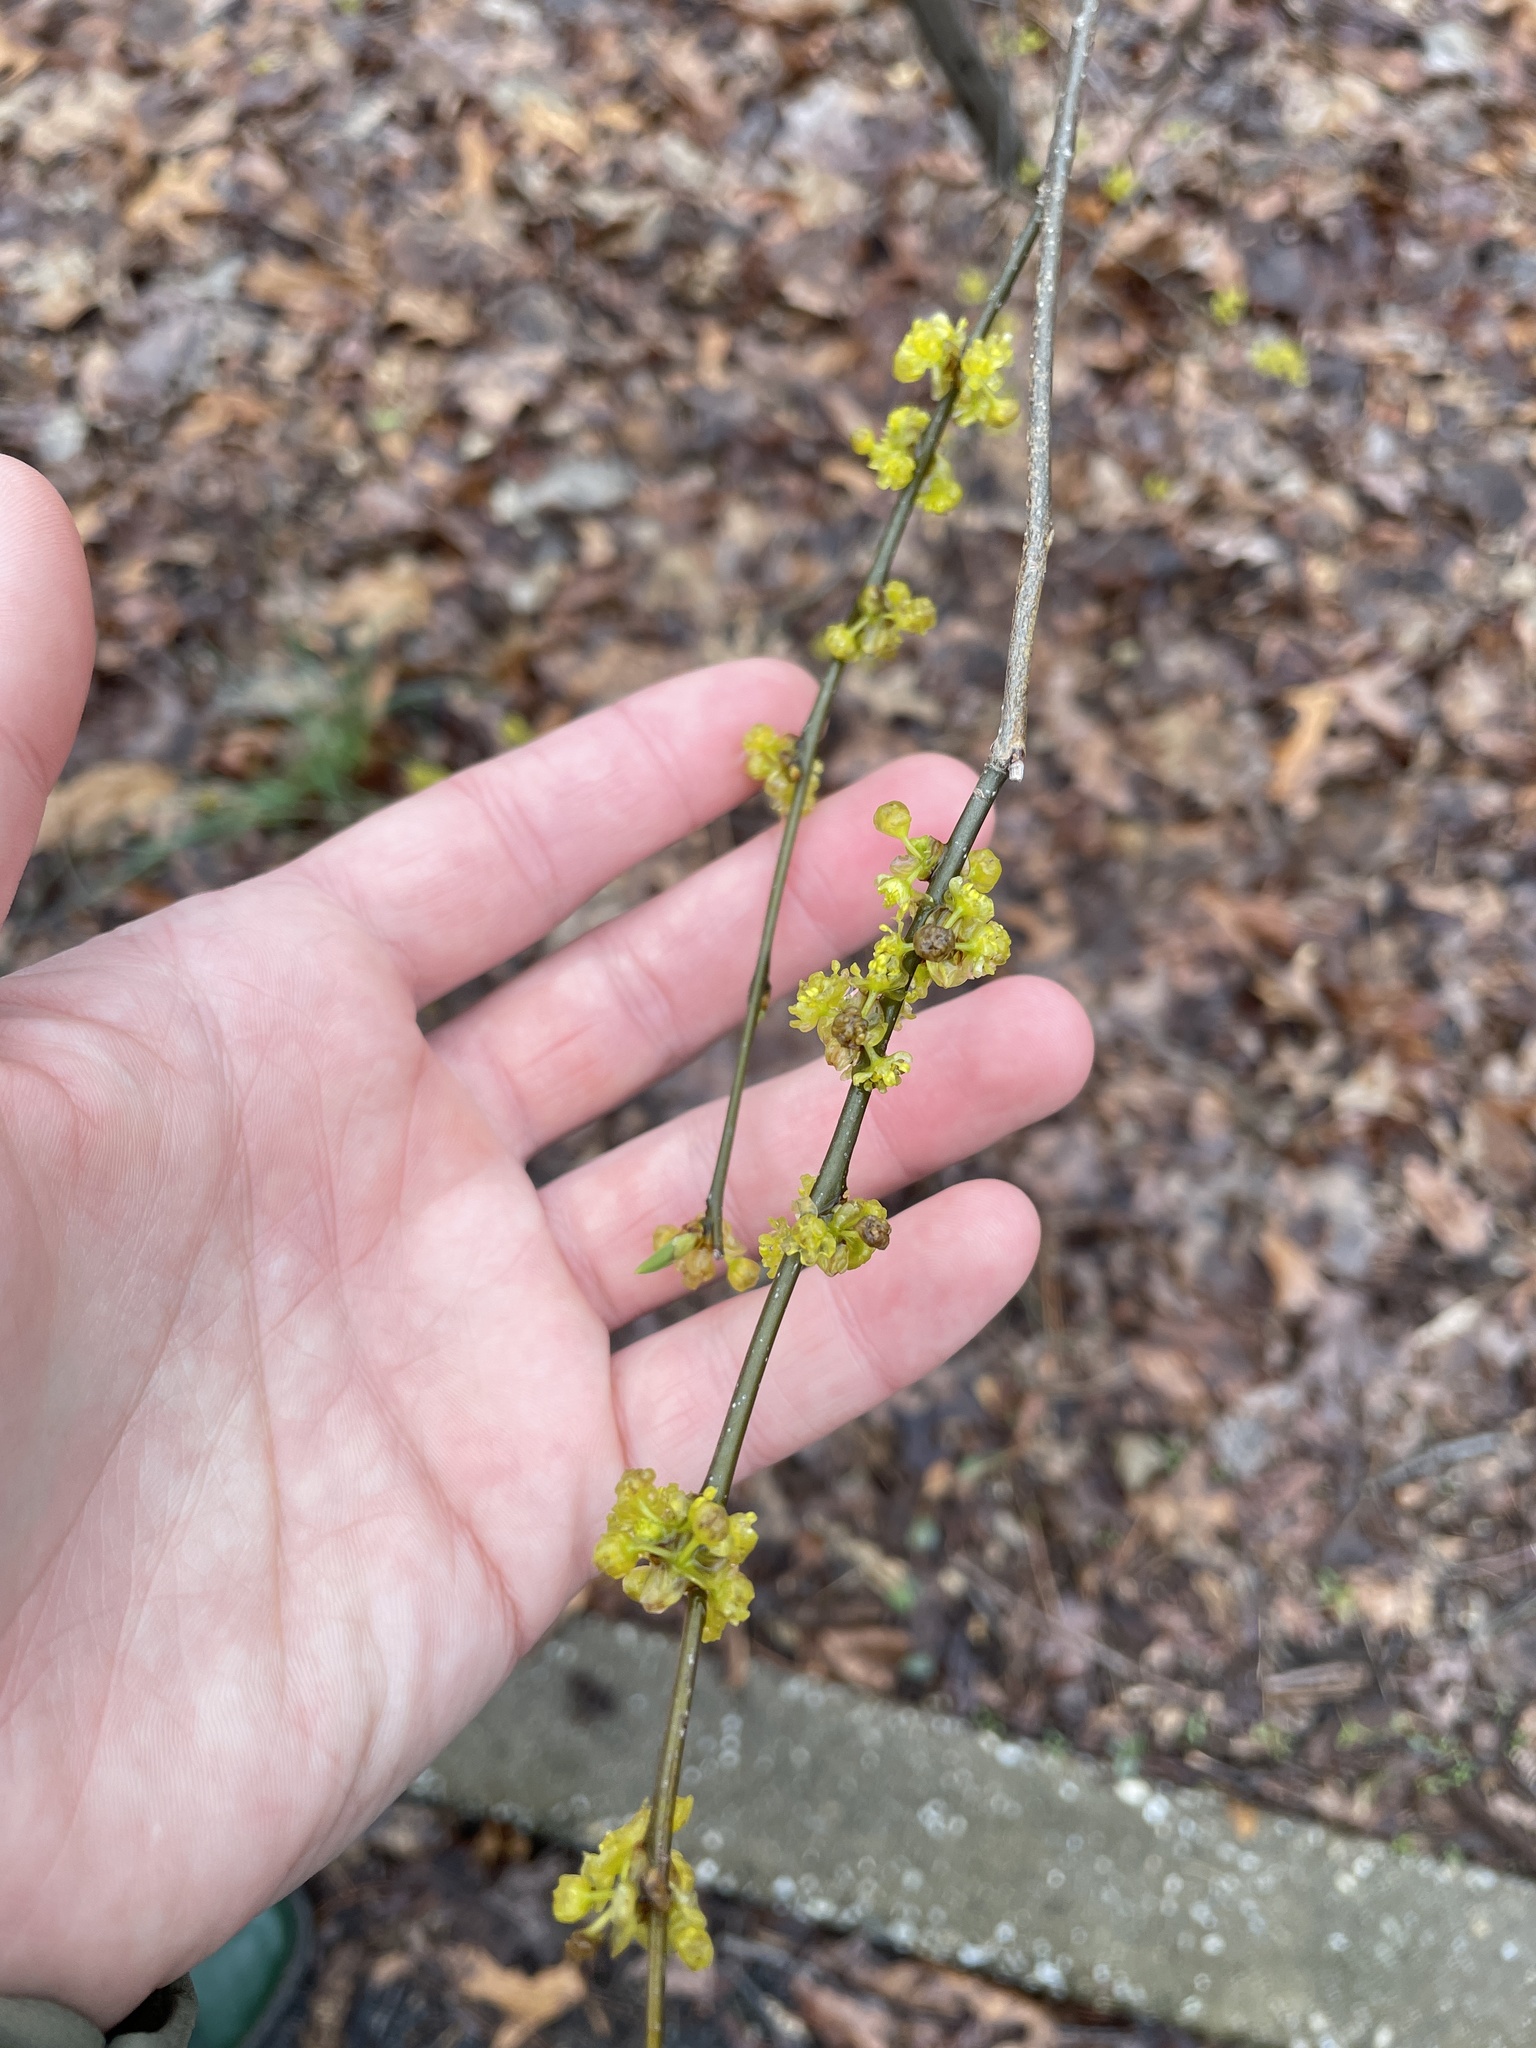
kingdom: Plantae
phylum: Tracheophyta
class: Magnoliopsida
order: Laurales
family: Lauraceae
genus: Lindera
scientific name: Lindera benzoin
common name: Spicebush
